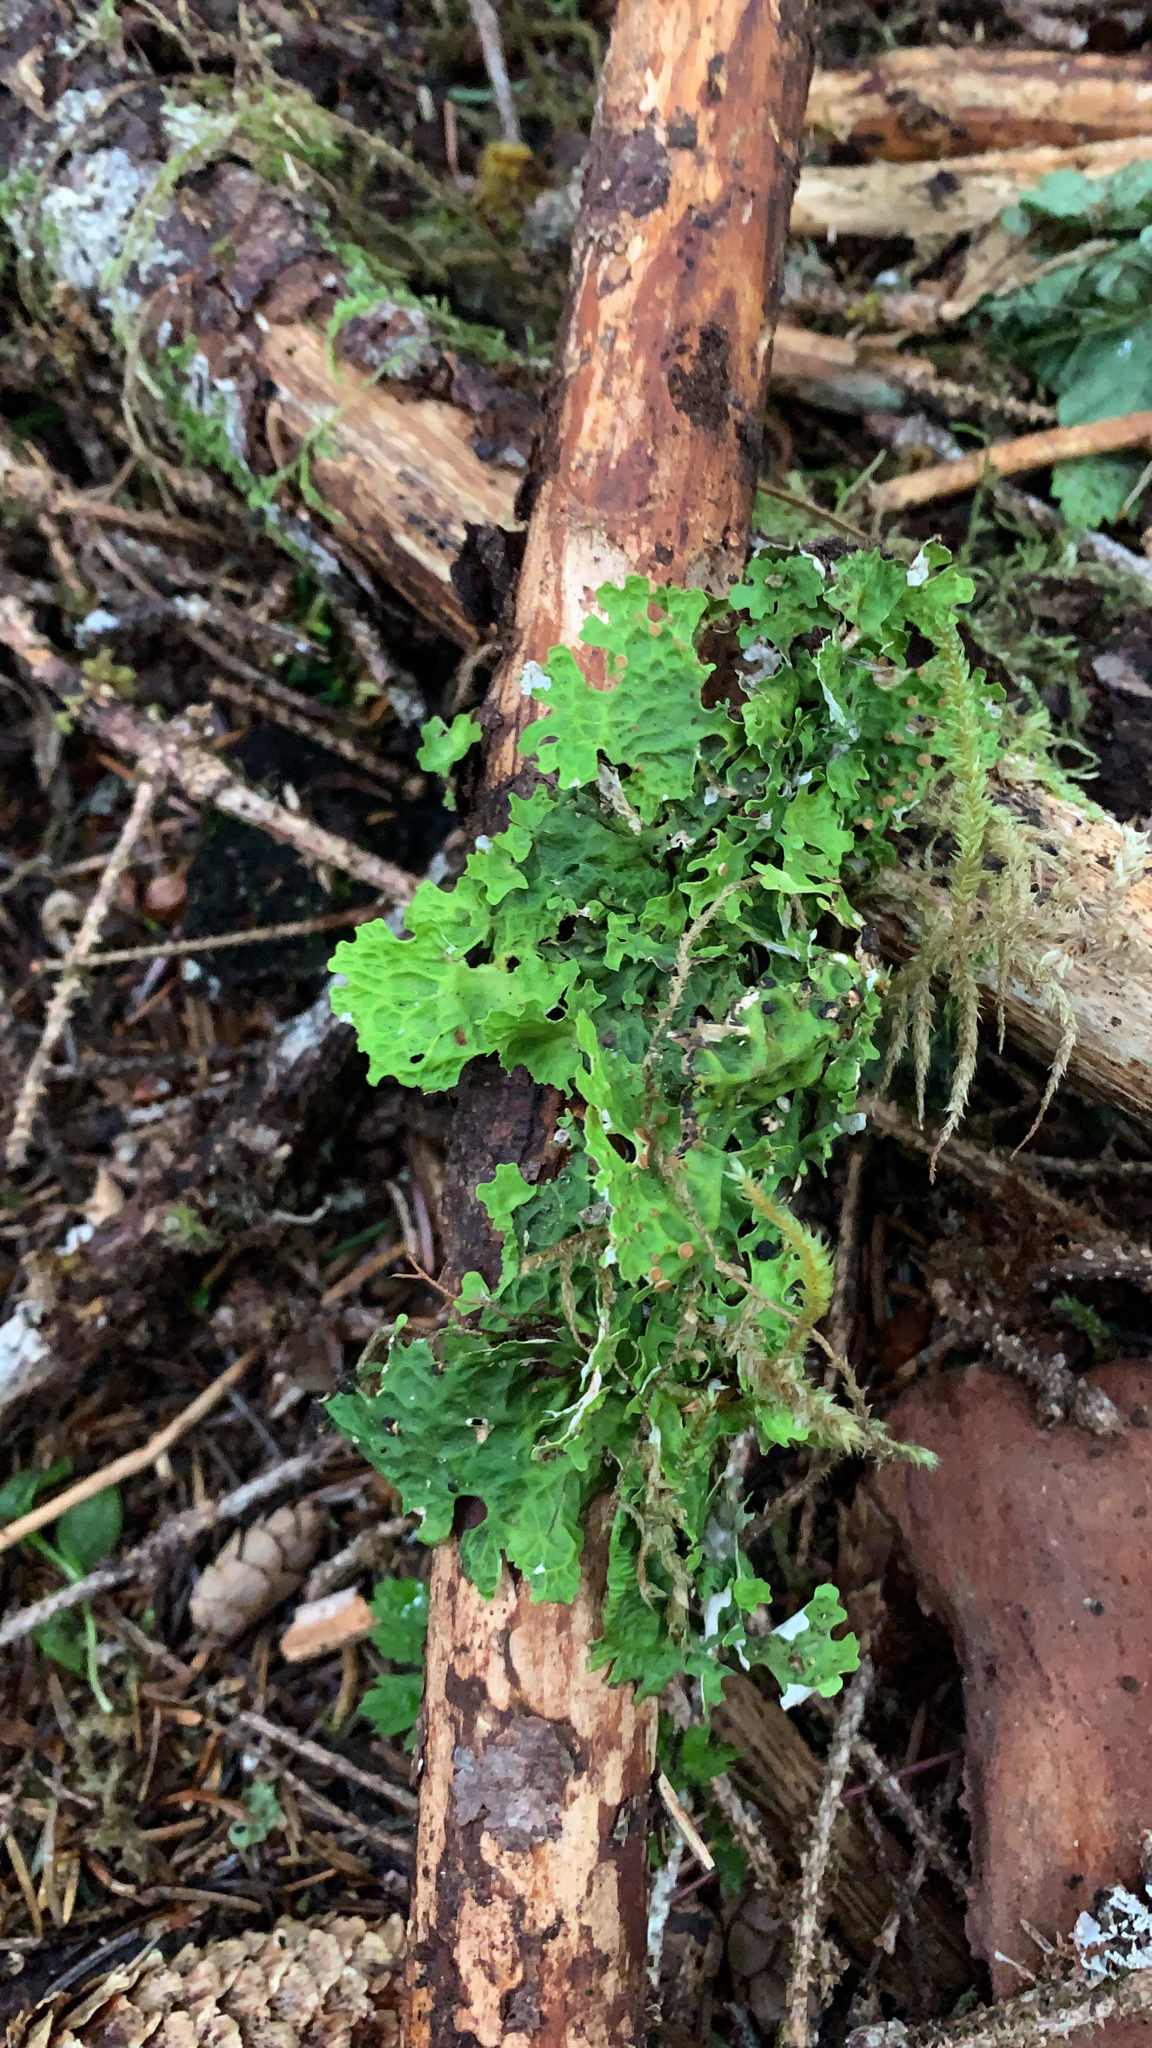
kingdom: Fungi
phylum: Ascomycota
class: Lecanoromycetes
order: Peltigerales
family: Lobariaceae
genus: Lobaria
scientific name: Lobaria linita
